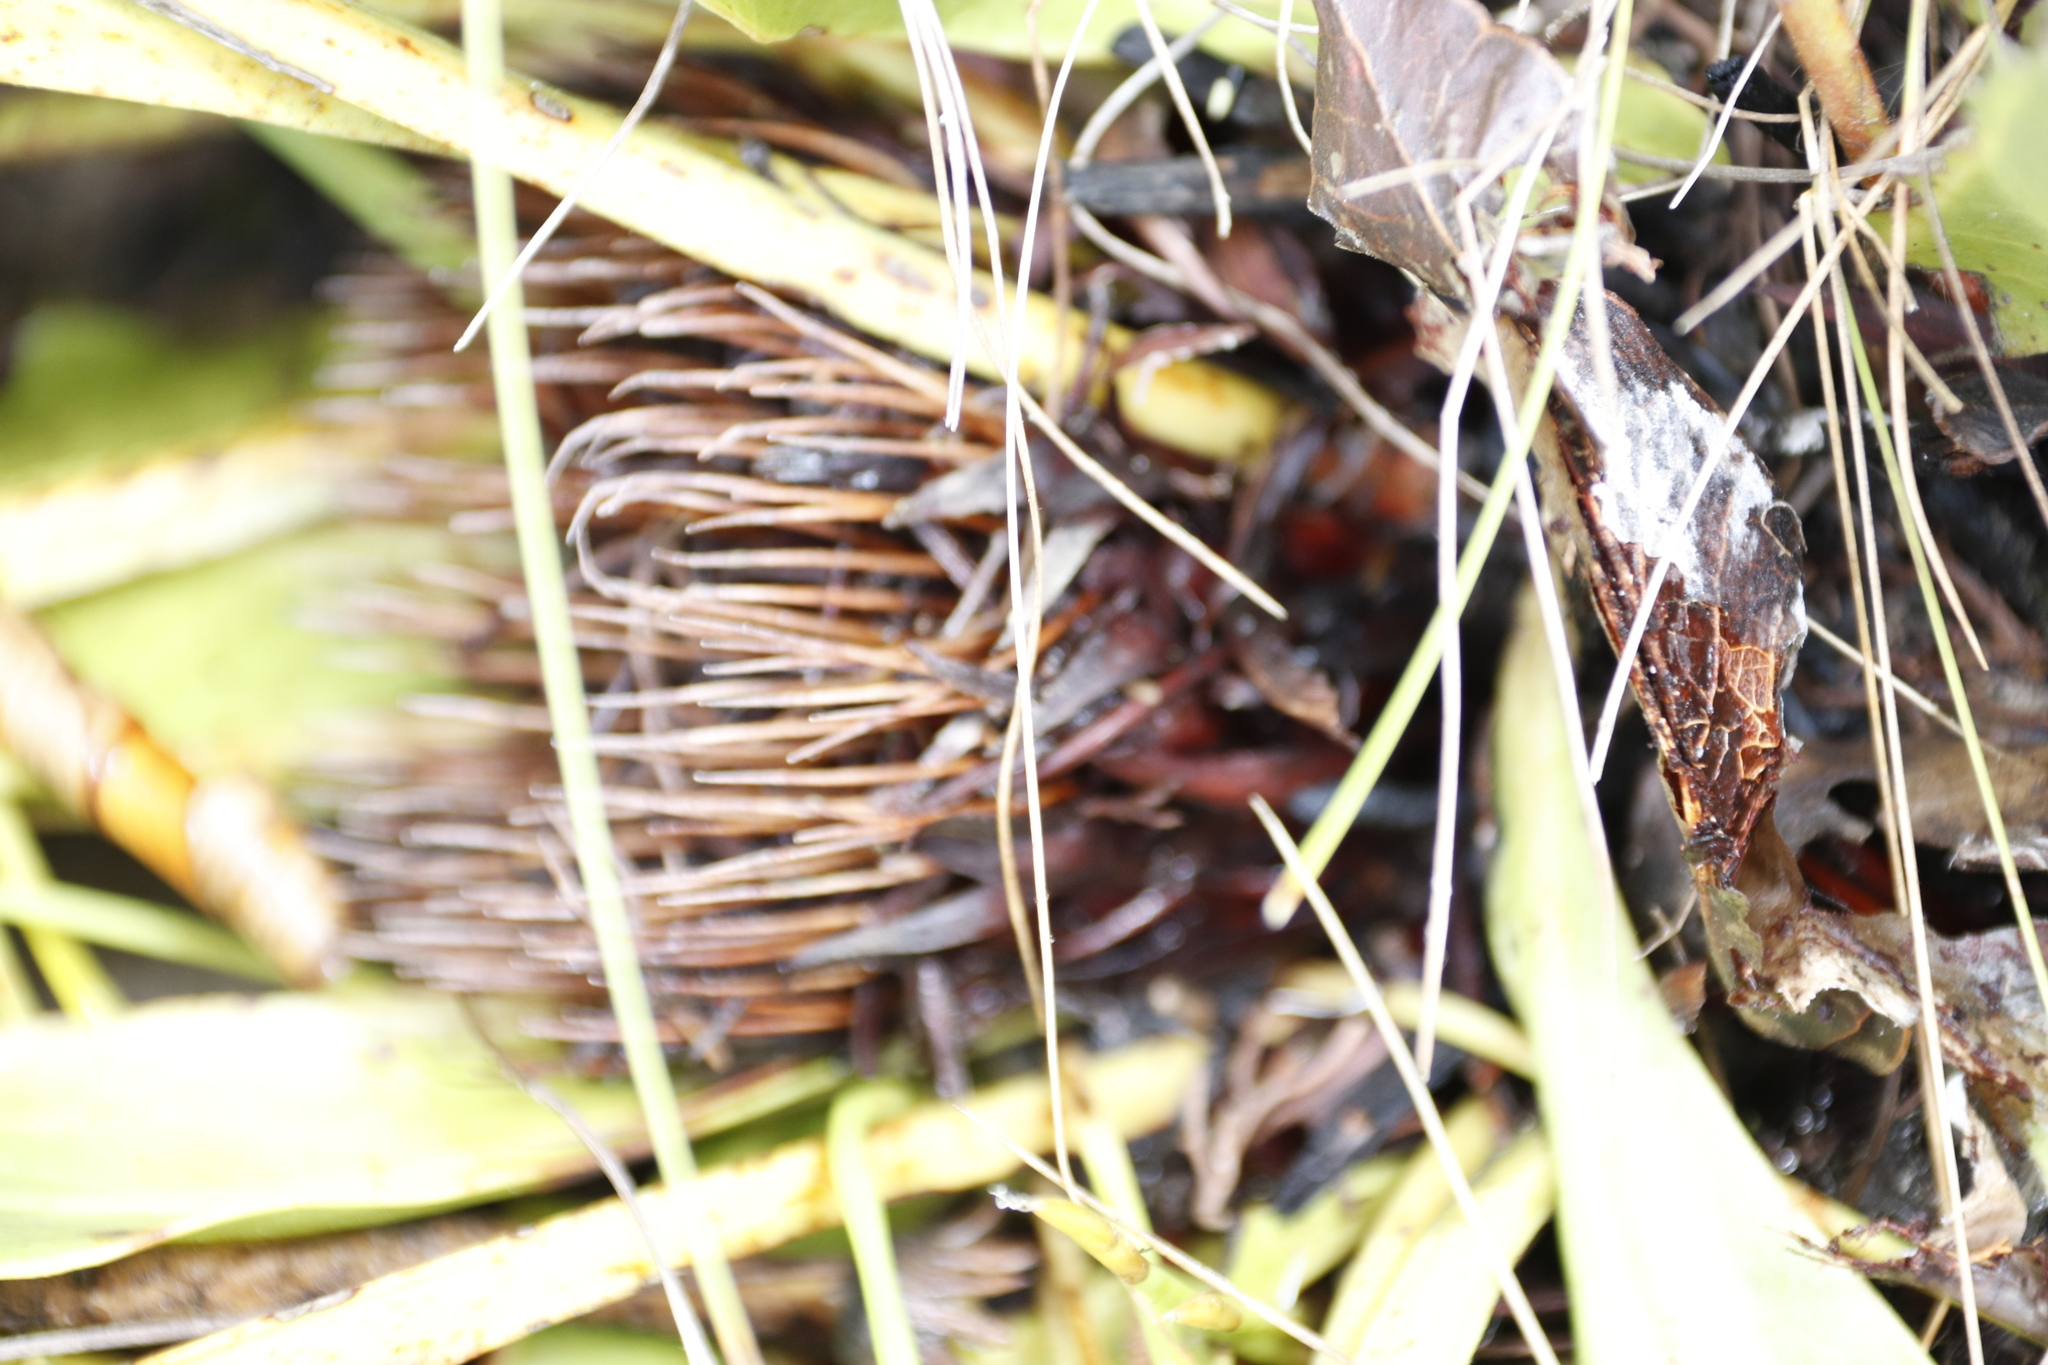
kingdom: Plantae
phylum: Tracheophyta
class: Magnoliopsida
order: Proteales
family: Proteaceae
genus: Protea
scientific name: Protea scolopendriifolia
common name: Harts-tongue-fern sugarbush
